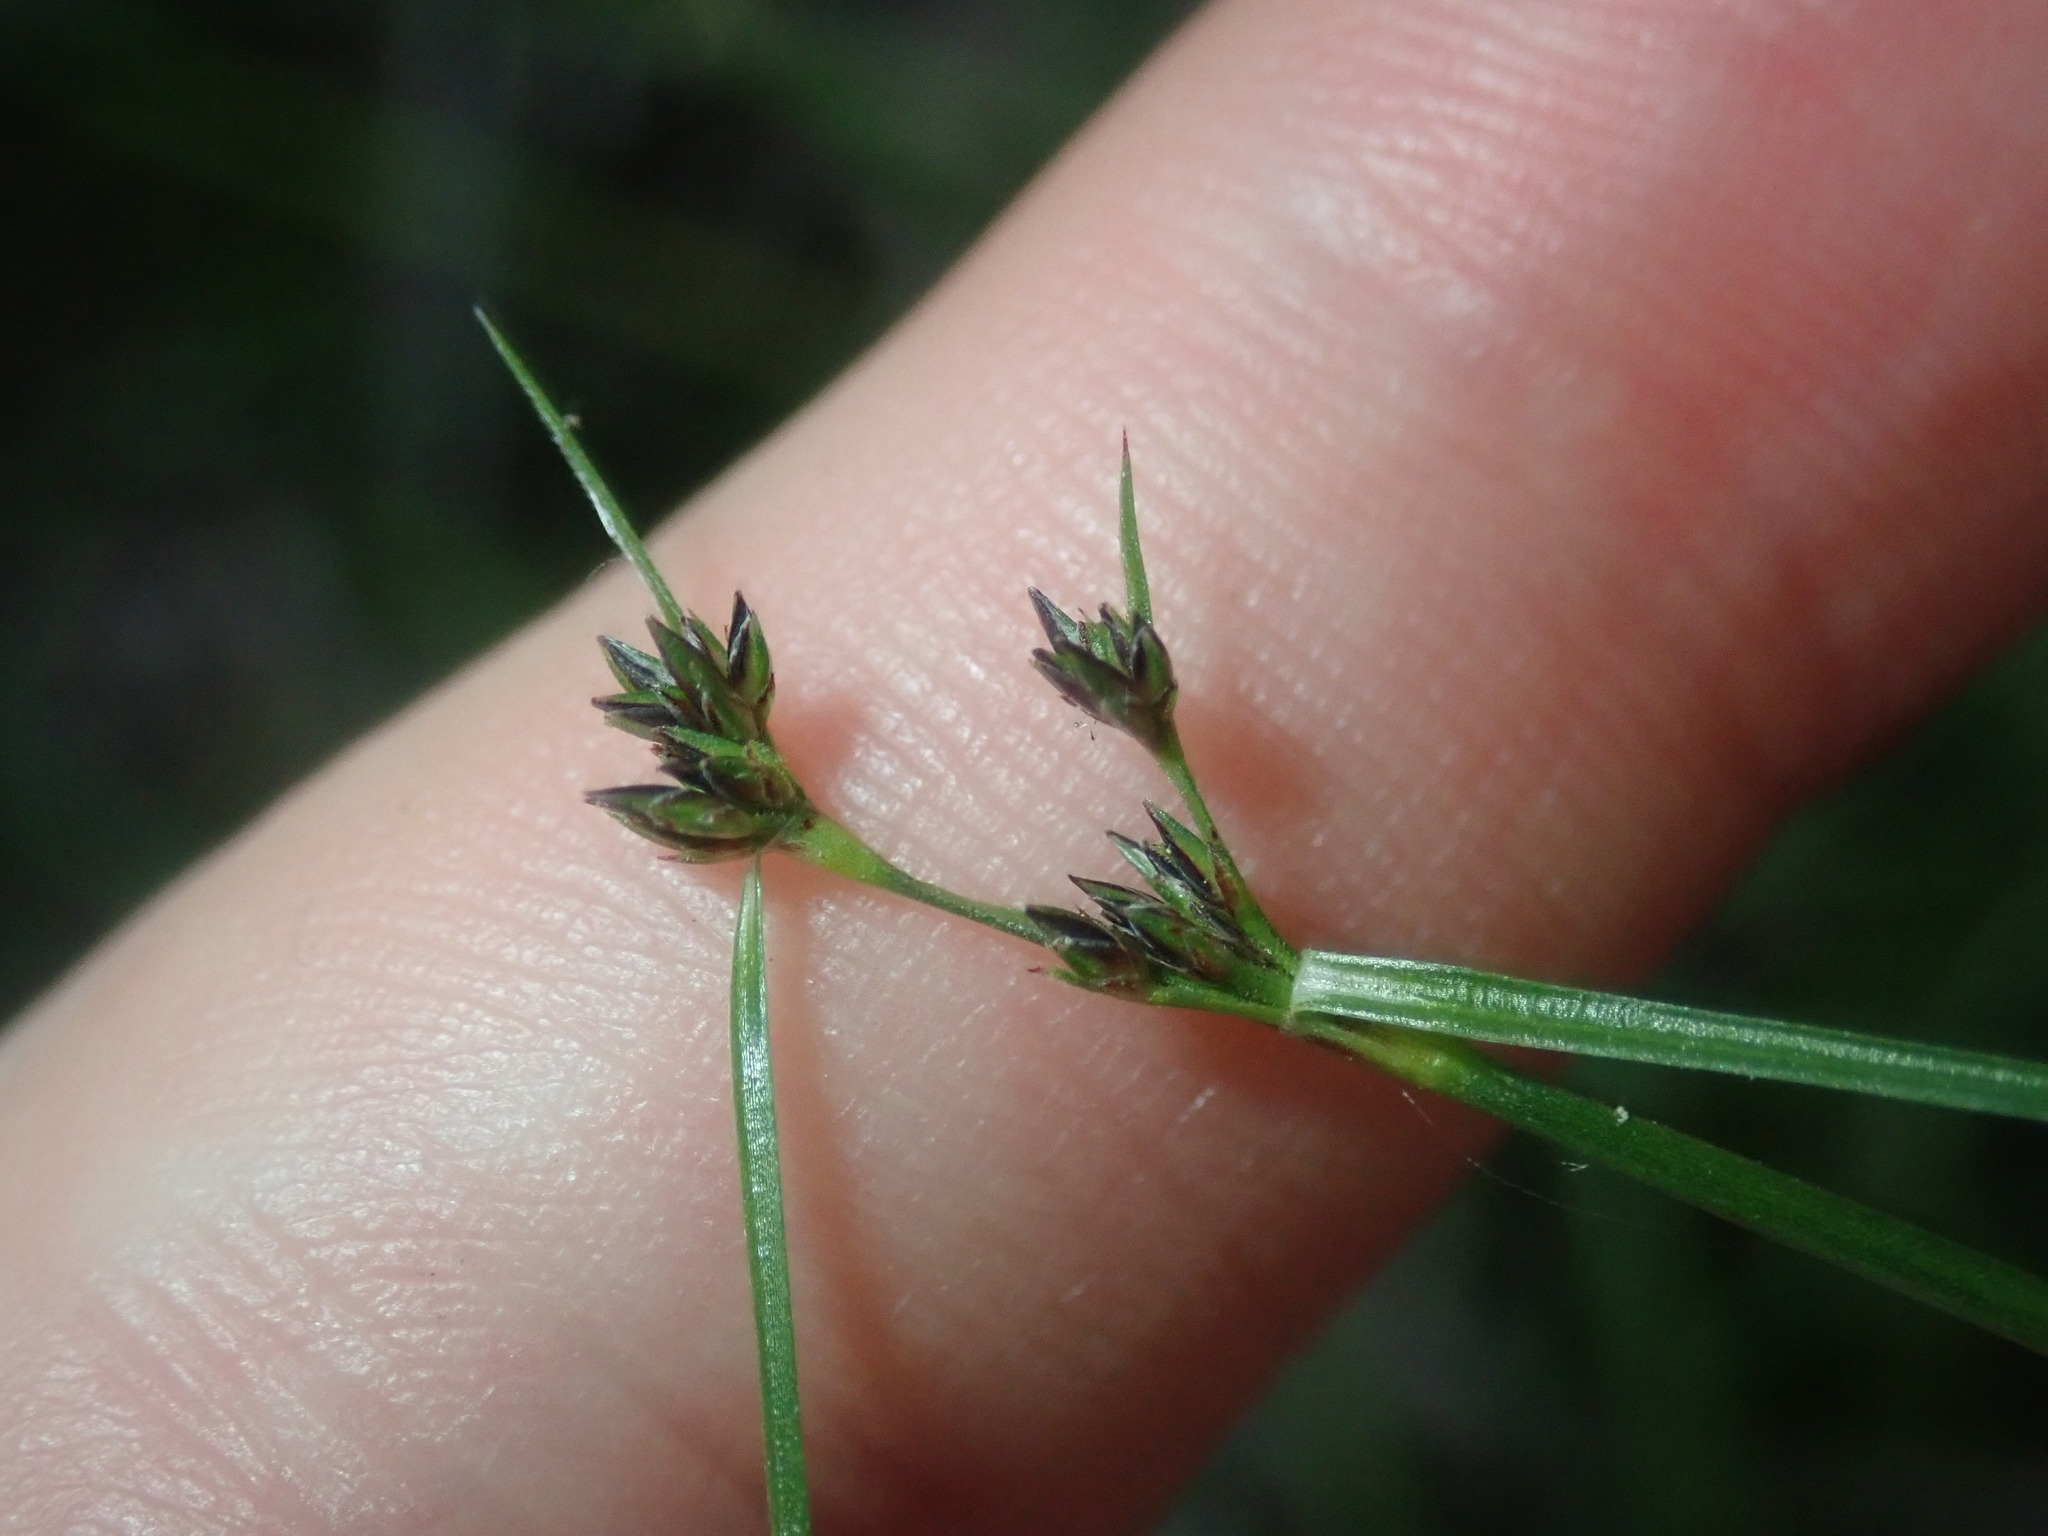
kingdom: Plantae
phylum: Tracheophyta
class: Liliopsida
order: Poales
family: Cyperaceae
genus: Schoenus
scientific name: Schoenus apogon
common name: Smooth bogrush
